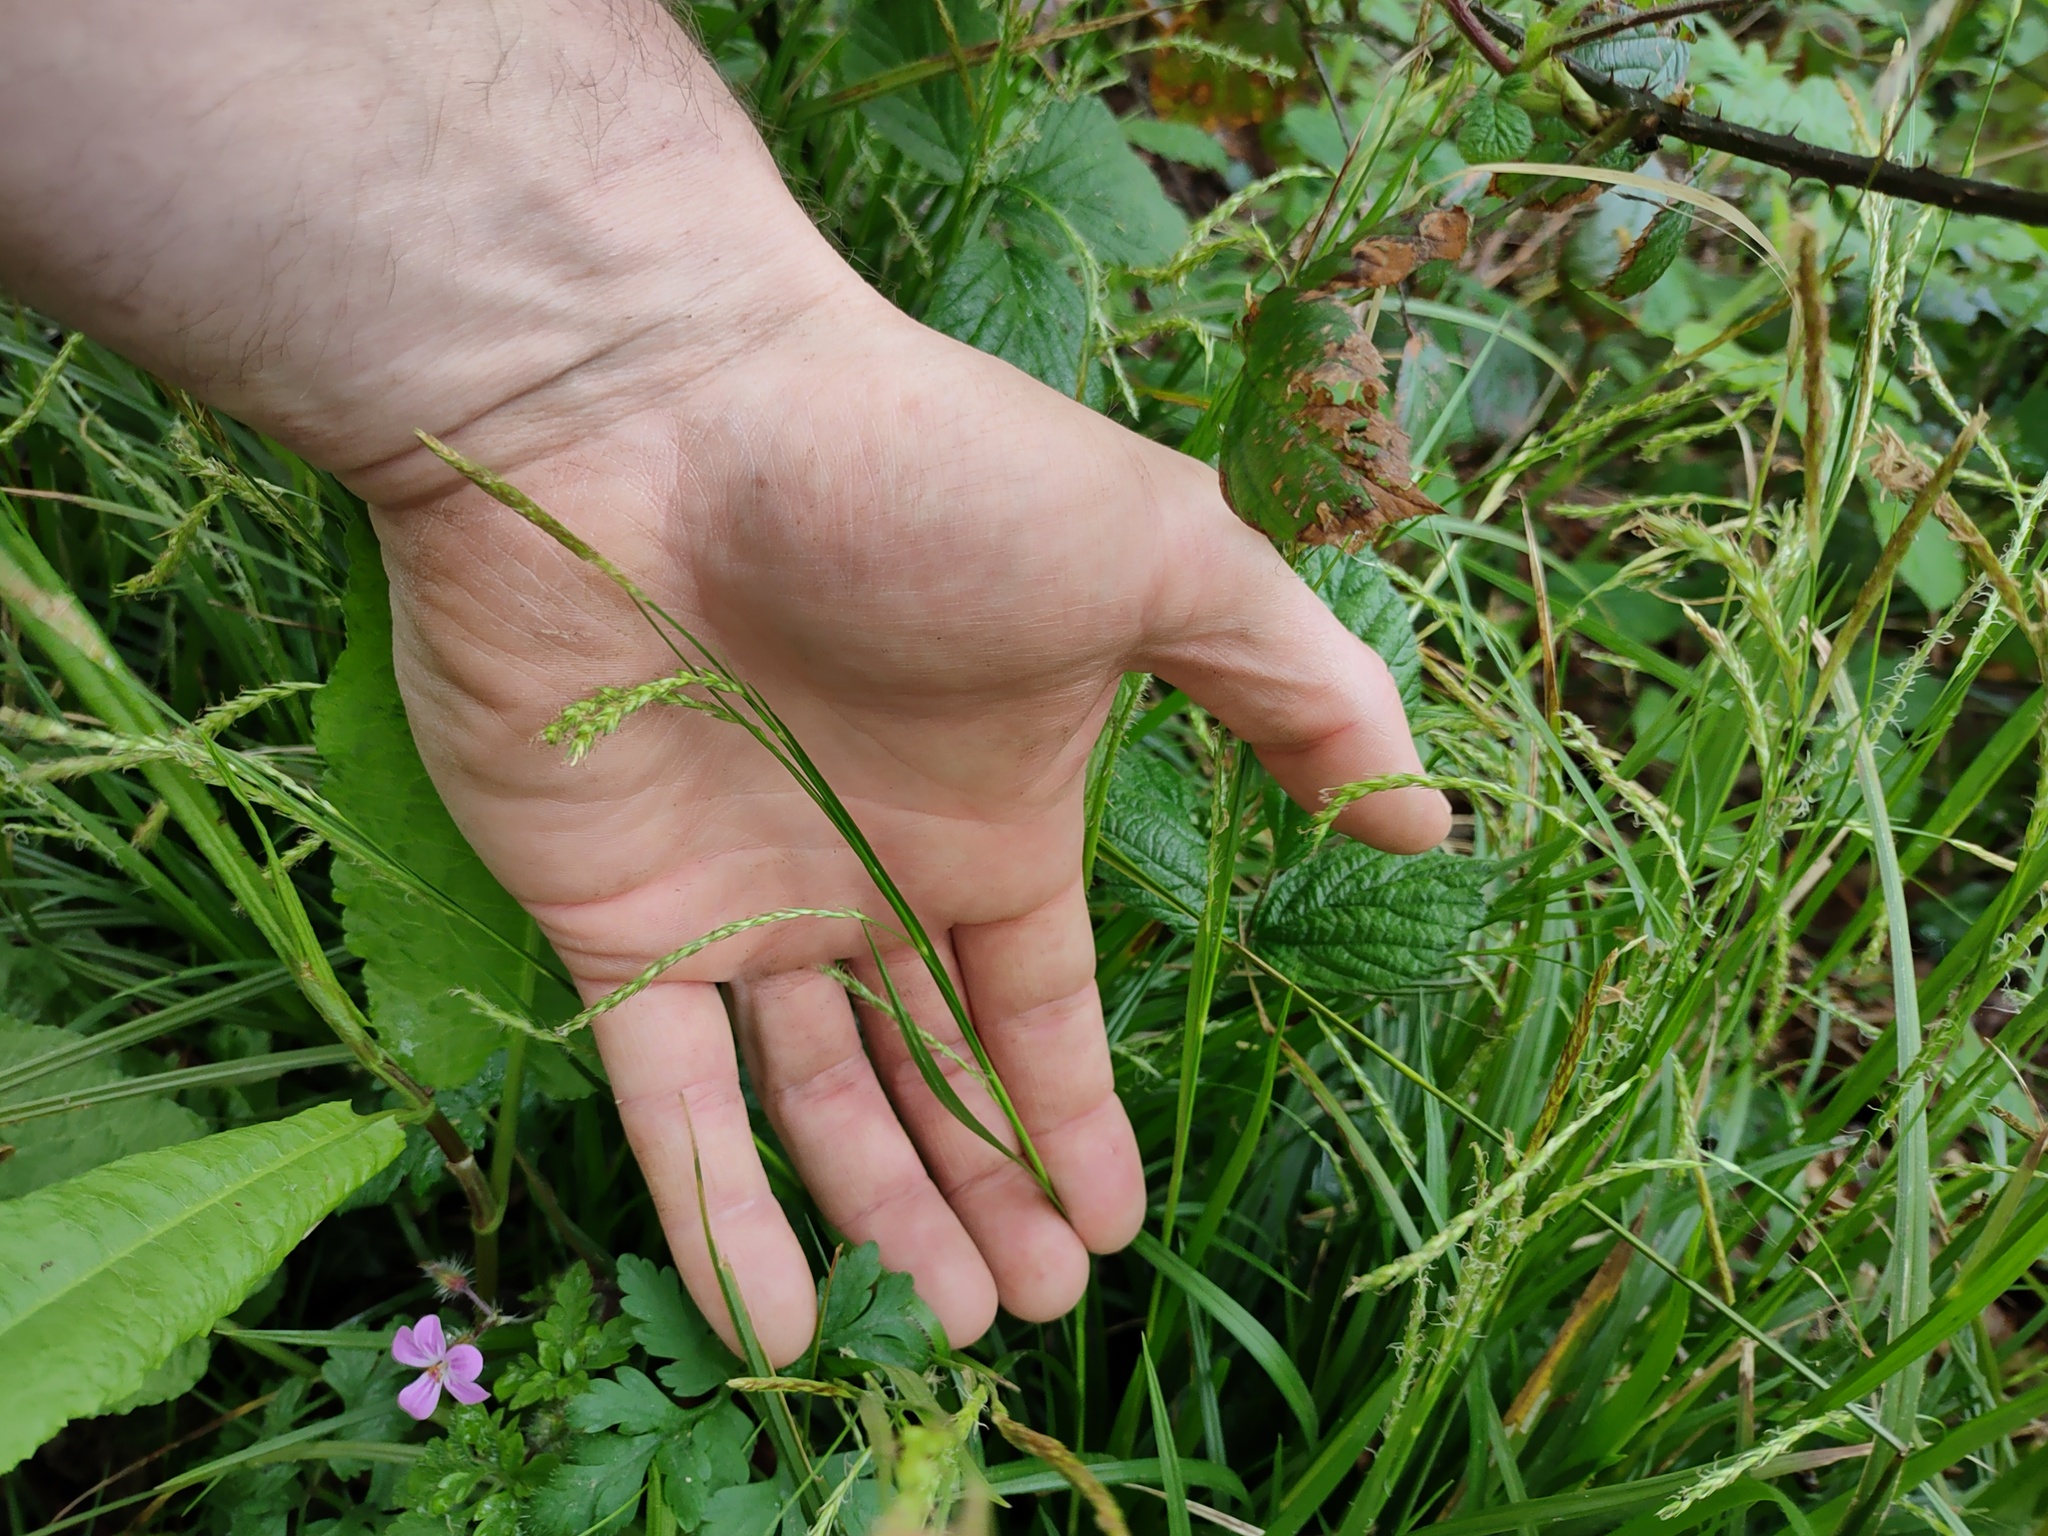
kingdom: Plantae
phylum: Tracheophyta
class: Liliopsida
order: Poales
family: Cyperaceae
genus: Carex
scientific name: Carex sylvatica
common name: Wood-sedge
